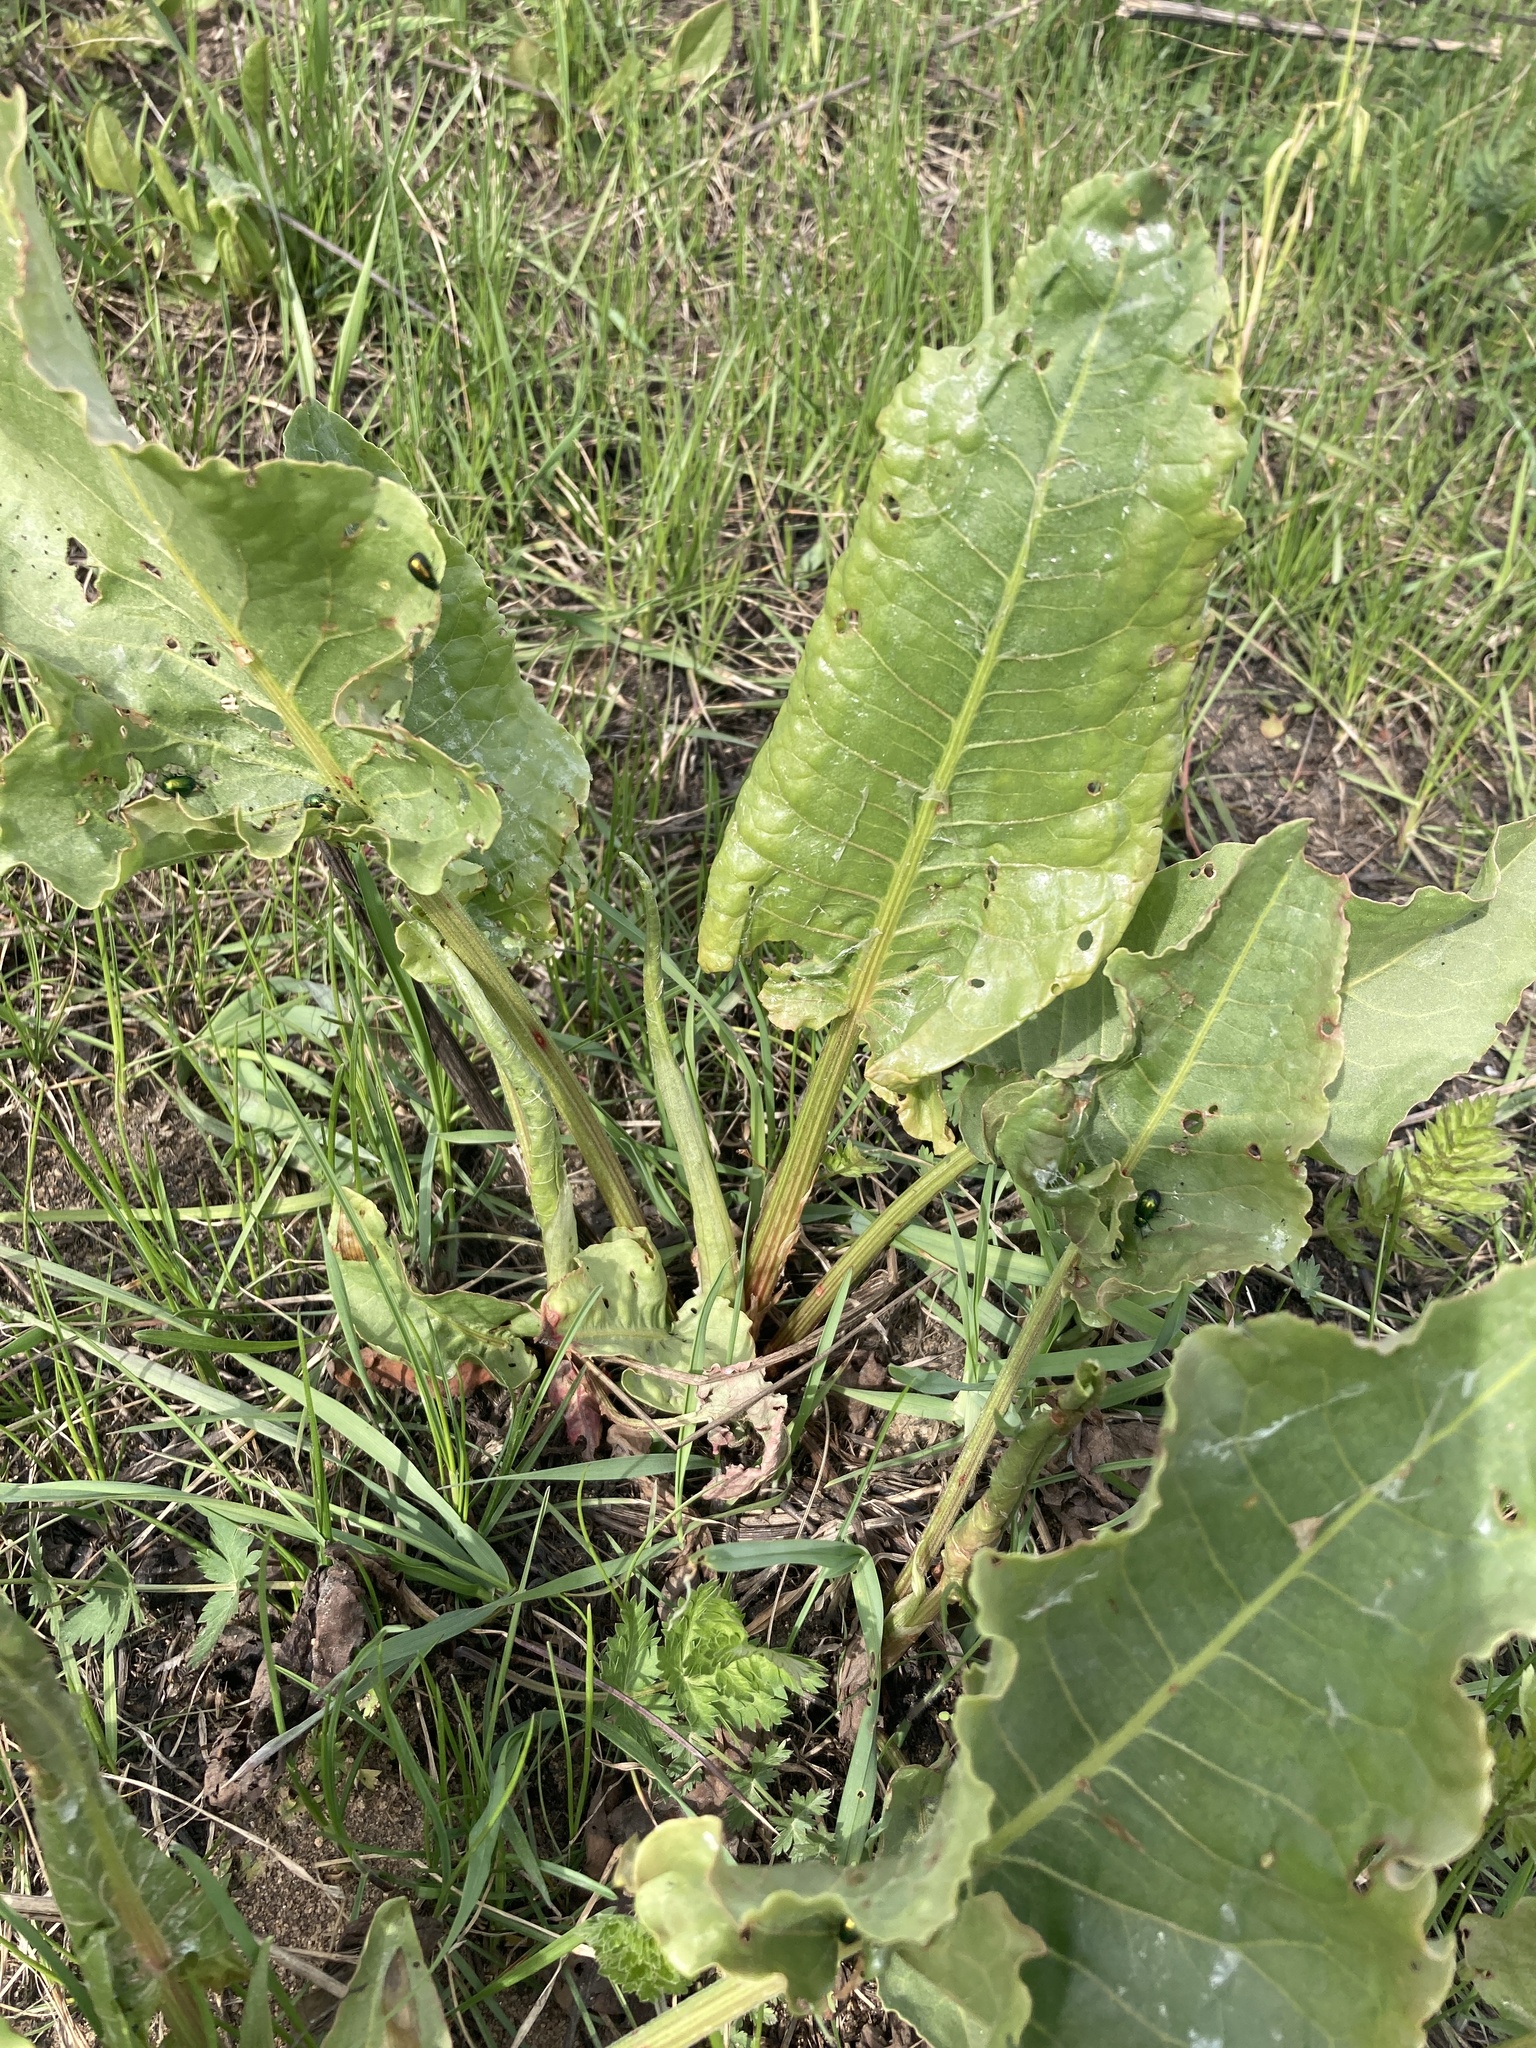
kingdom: Plantae
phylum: Tracheophyta
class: Magnoliopsida
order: Caryophyllales
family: Polygonaceae
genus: Rumex
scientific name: Rumex confertus
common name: Russian dock
